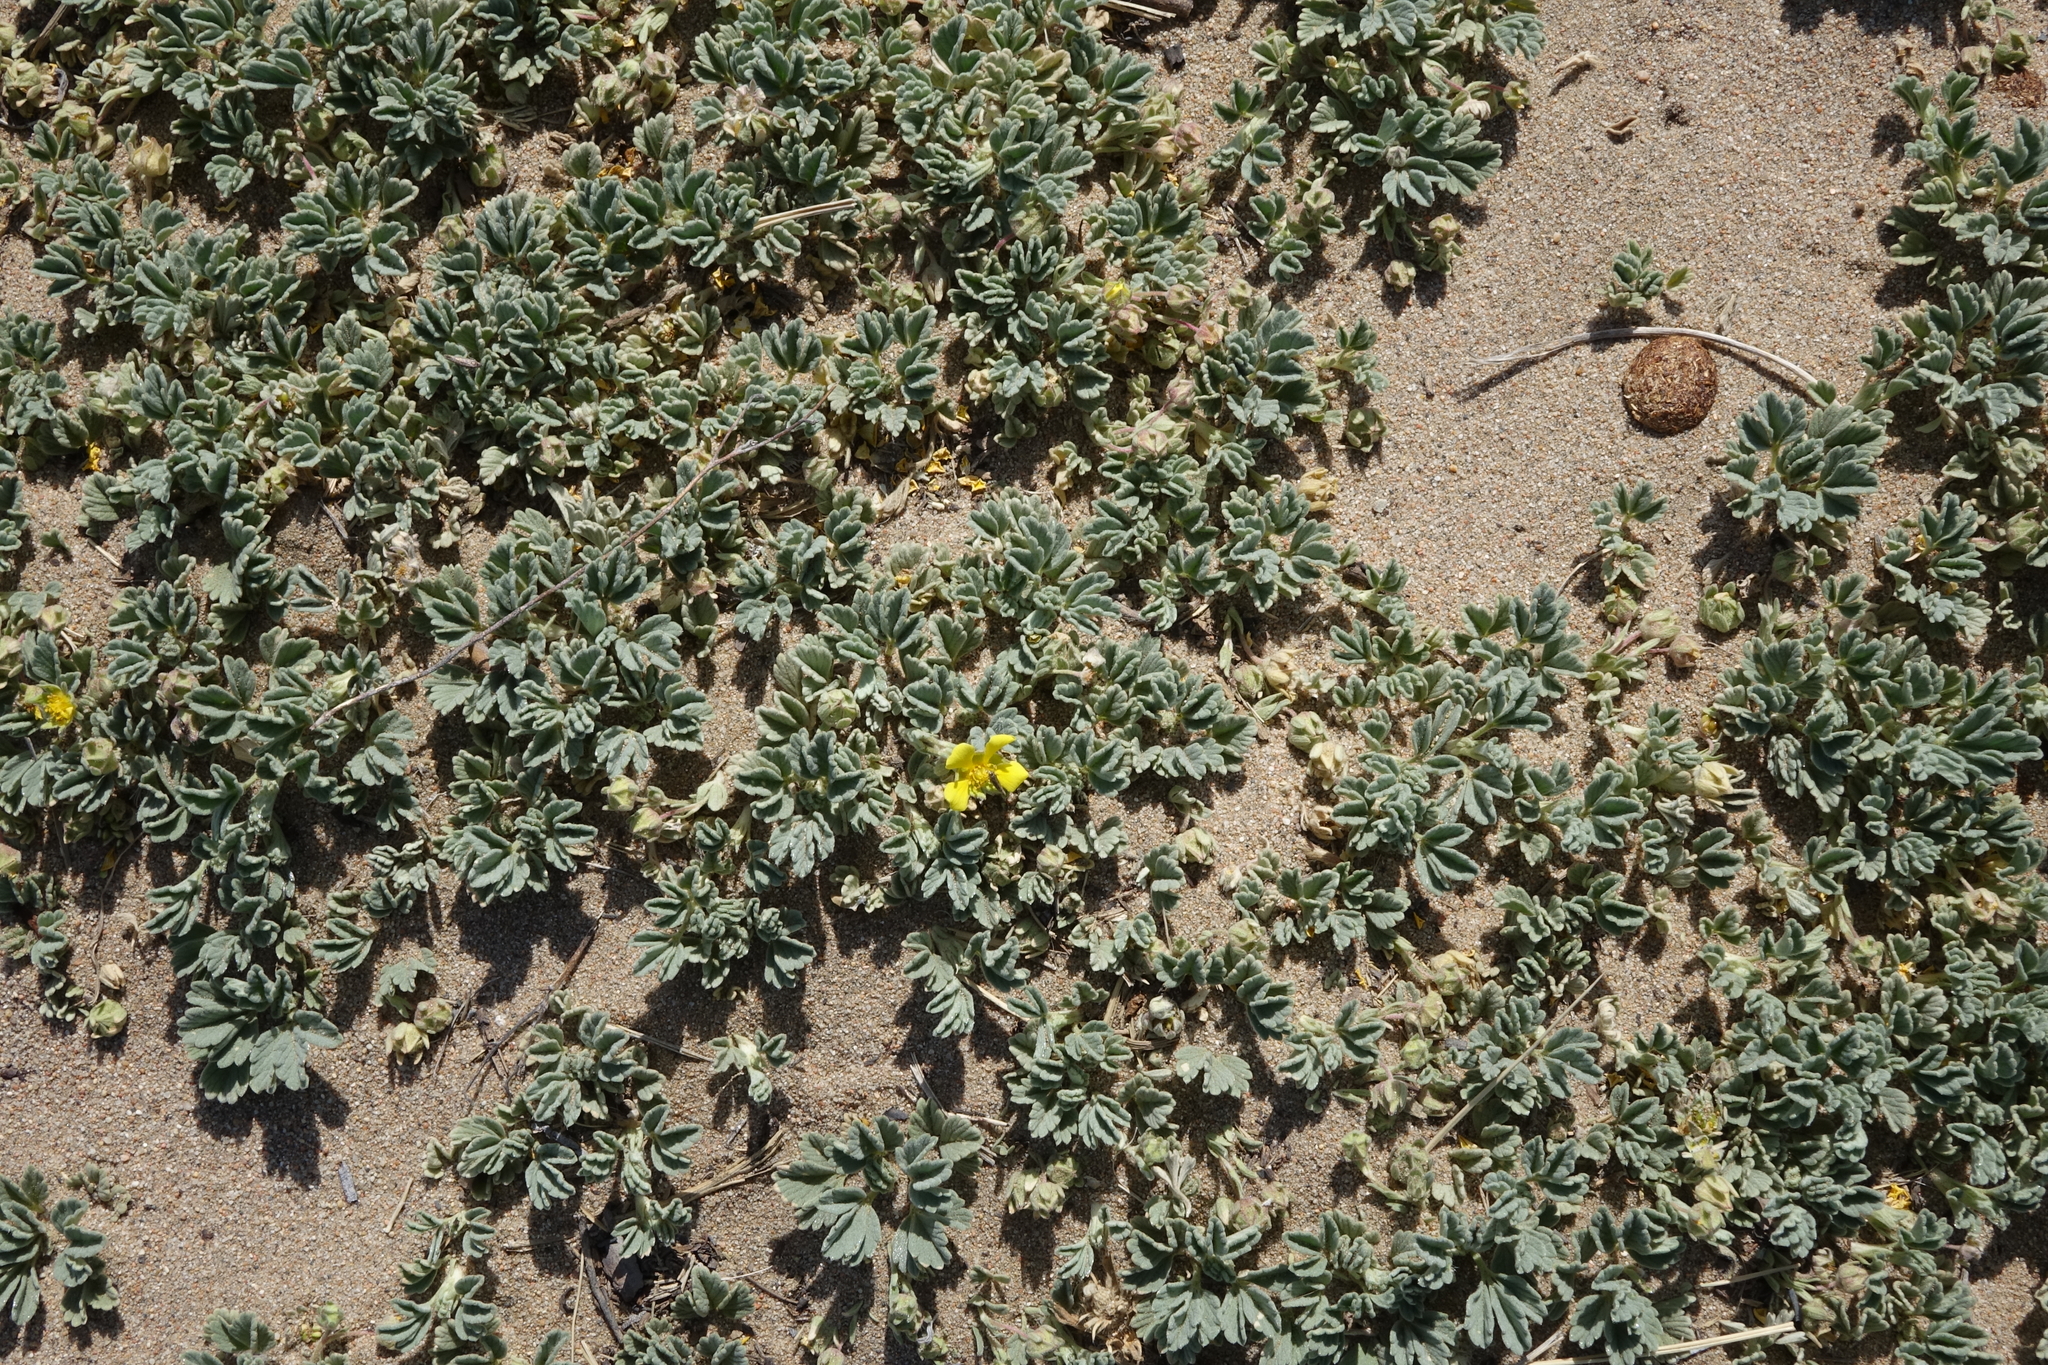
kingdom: Plantae
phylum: Tracheophyta
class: Magnoliopsida
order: Rosales
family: Rosaceae
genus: Potentilla
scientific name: Potentilla acaulis
